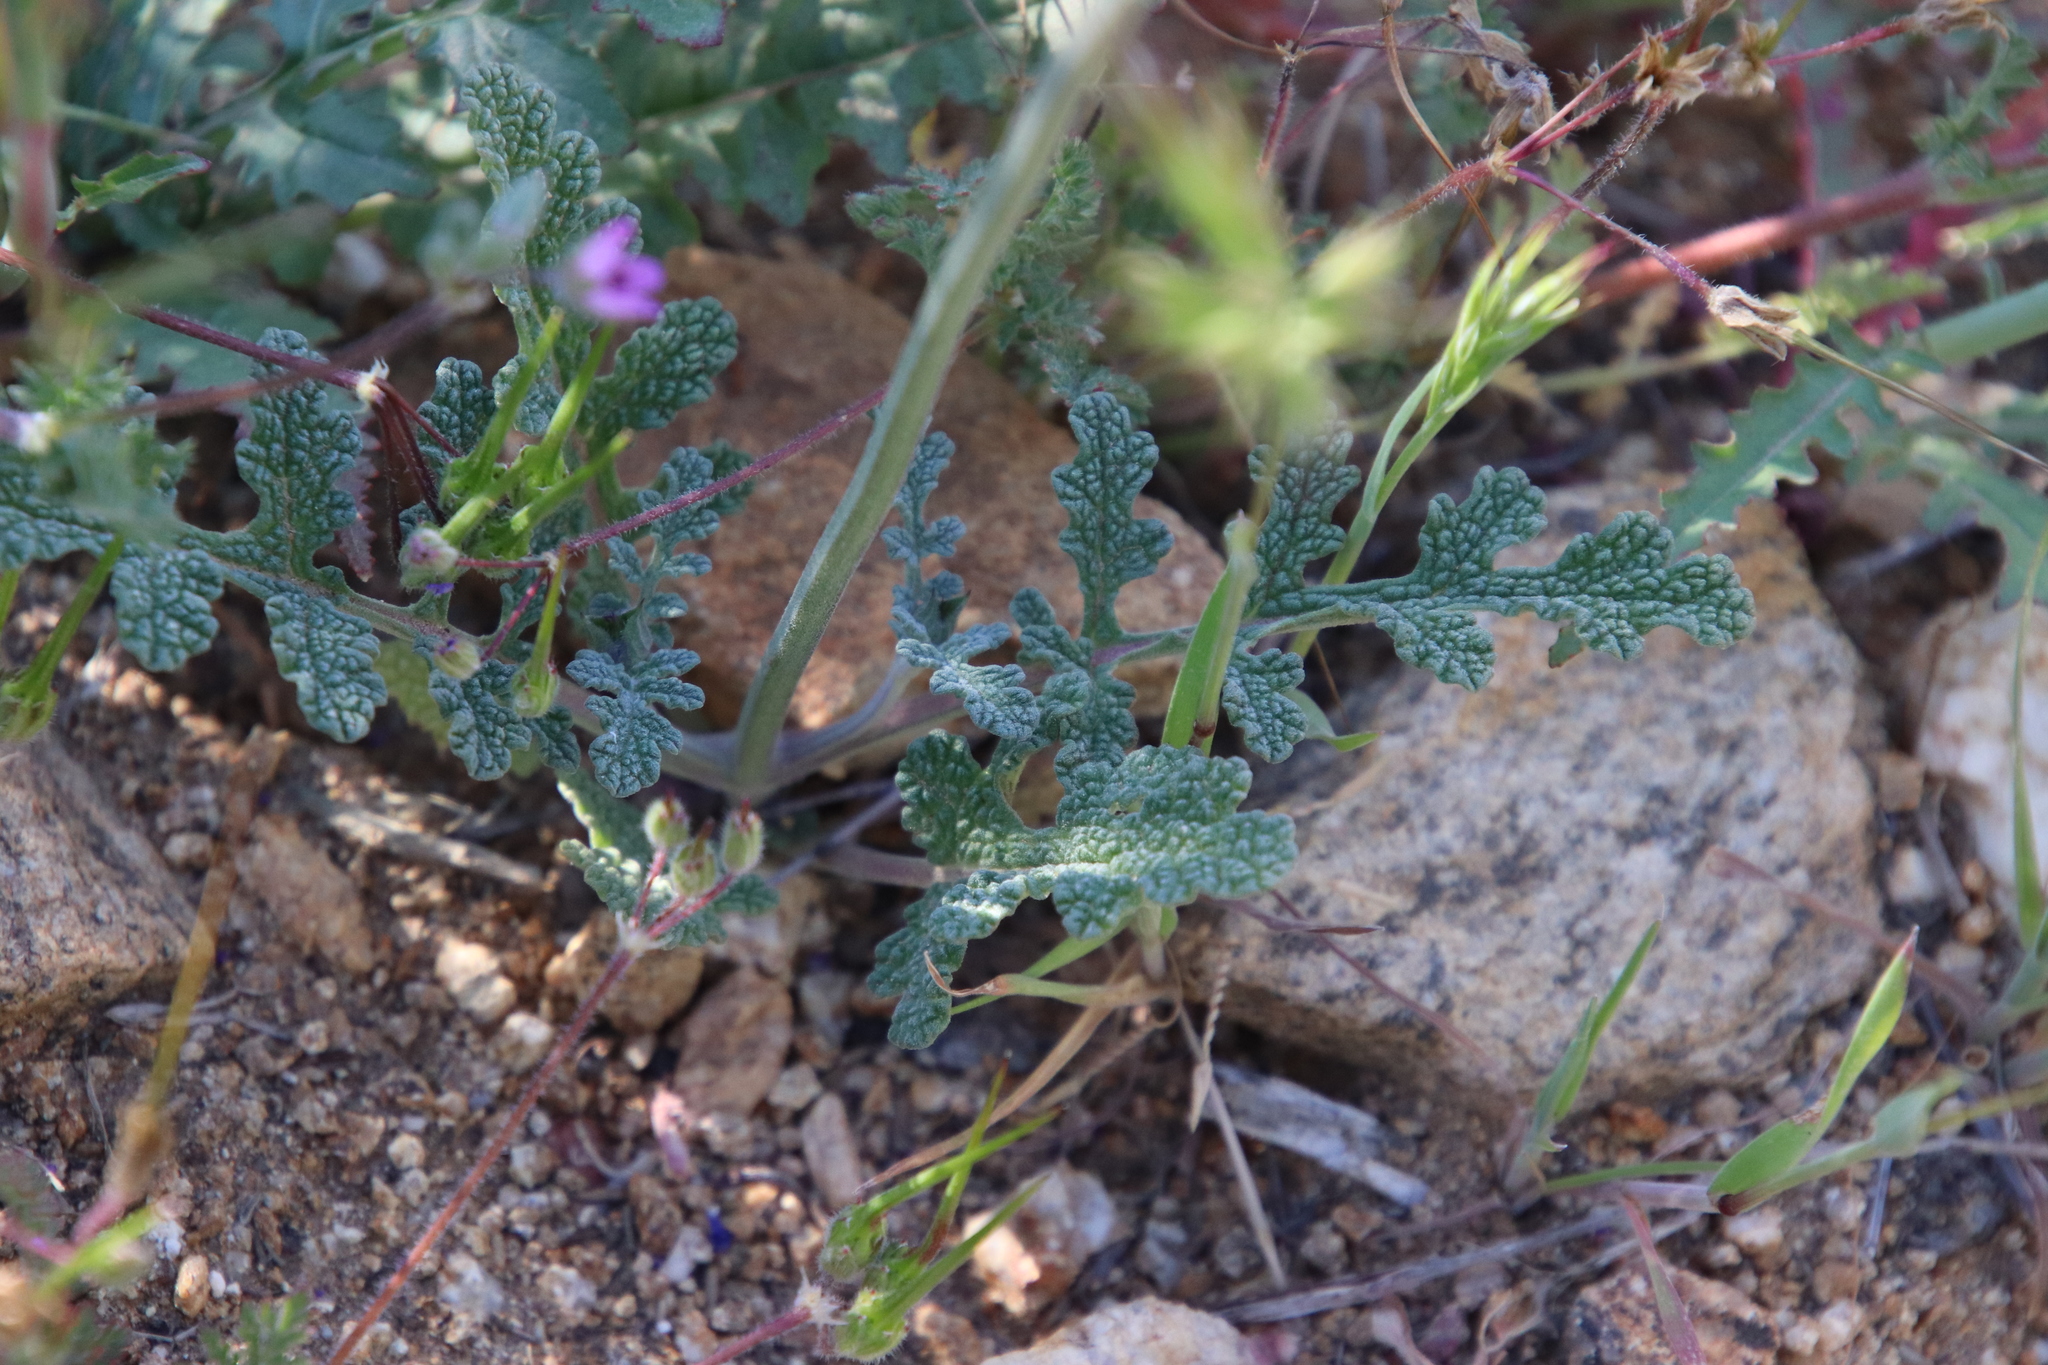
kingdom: Plantae
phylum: Tracheophyta
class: Magnoliopsida
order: Lamiales
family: Lamiaceae
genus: Salvia
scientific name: Salvia columbariae
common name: Chia
